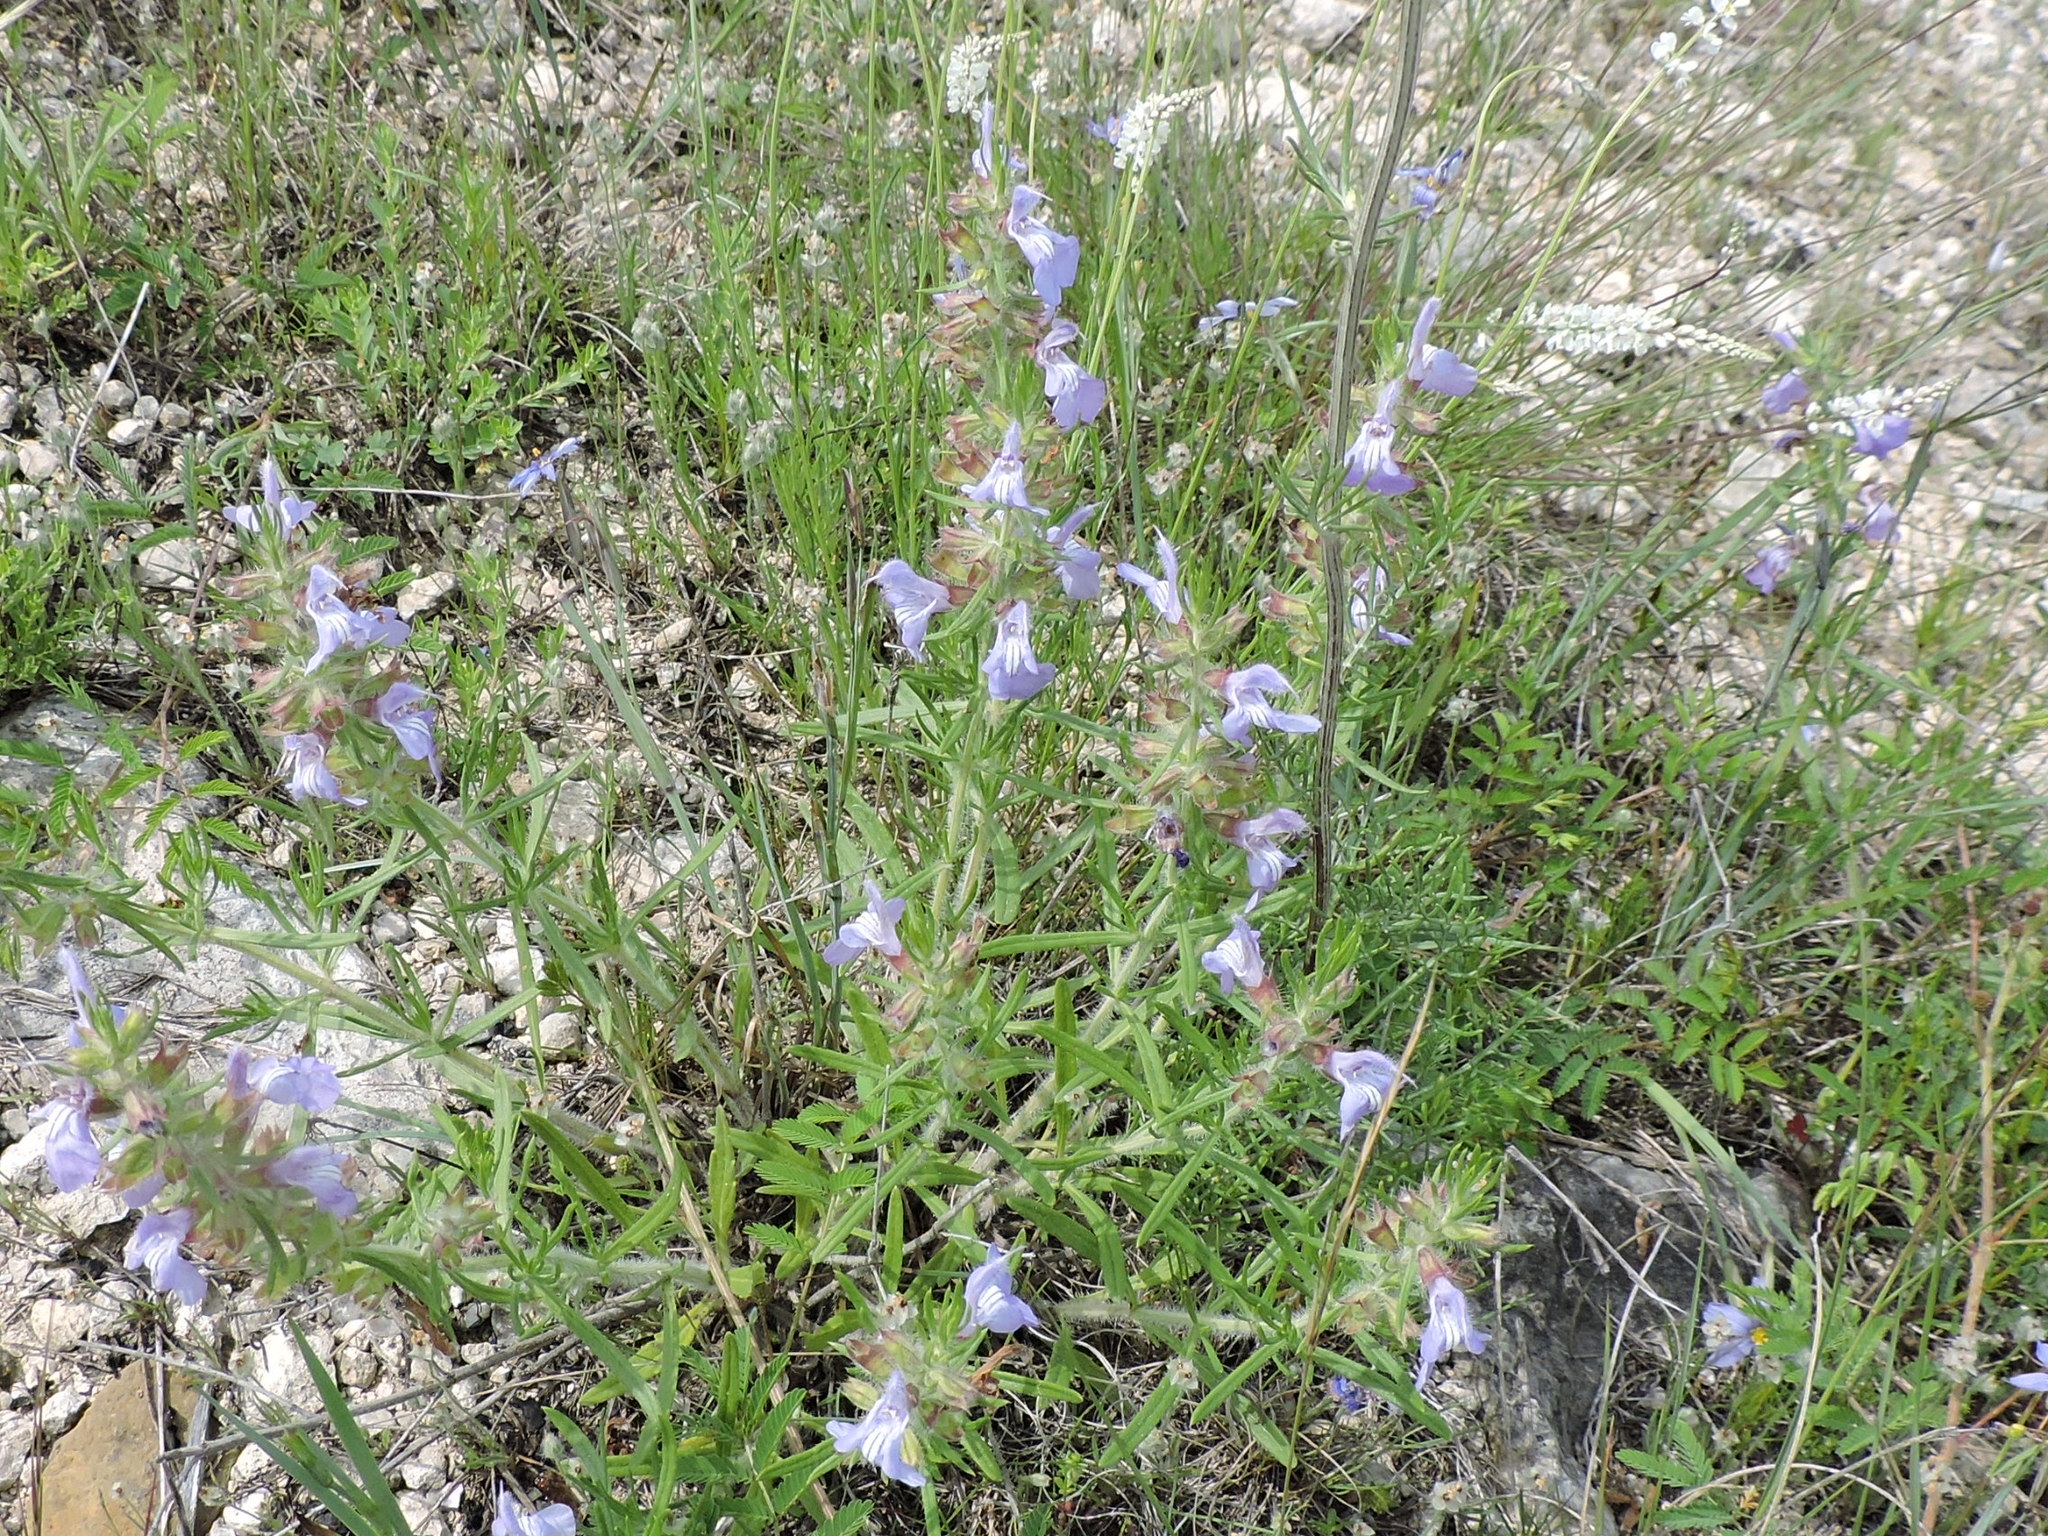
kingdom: Plantae
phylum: Tracheophyta
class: Magnoliopsida
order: Lamiales
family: Lamiaceae
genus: Salvia
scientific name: Salvia engelmannii
